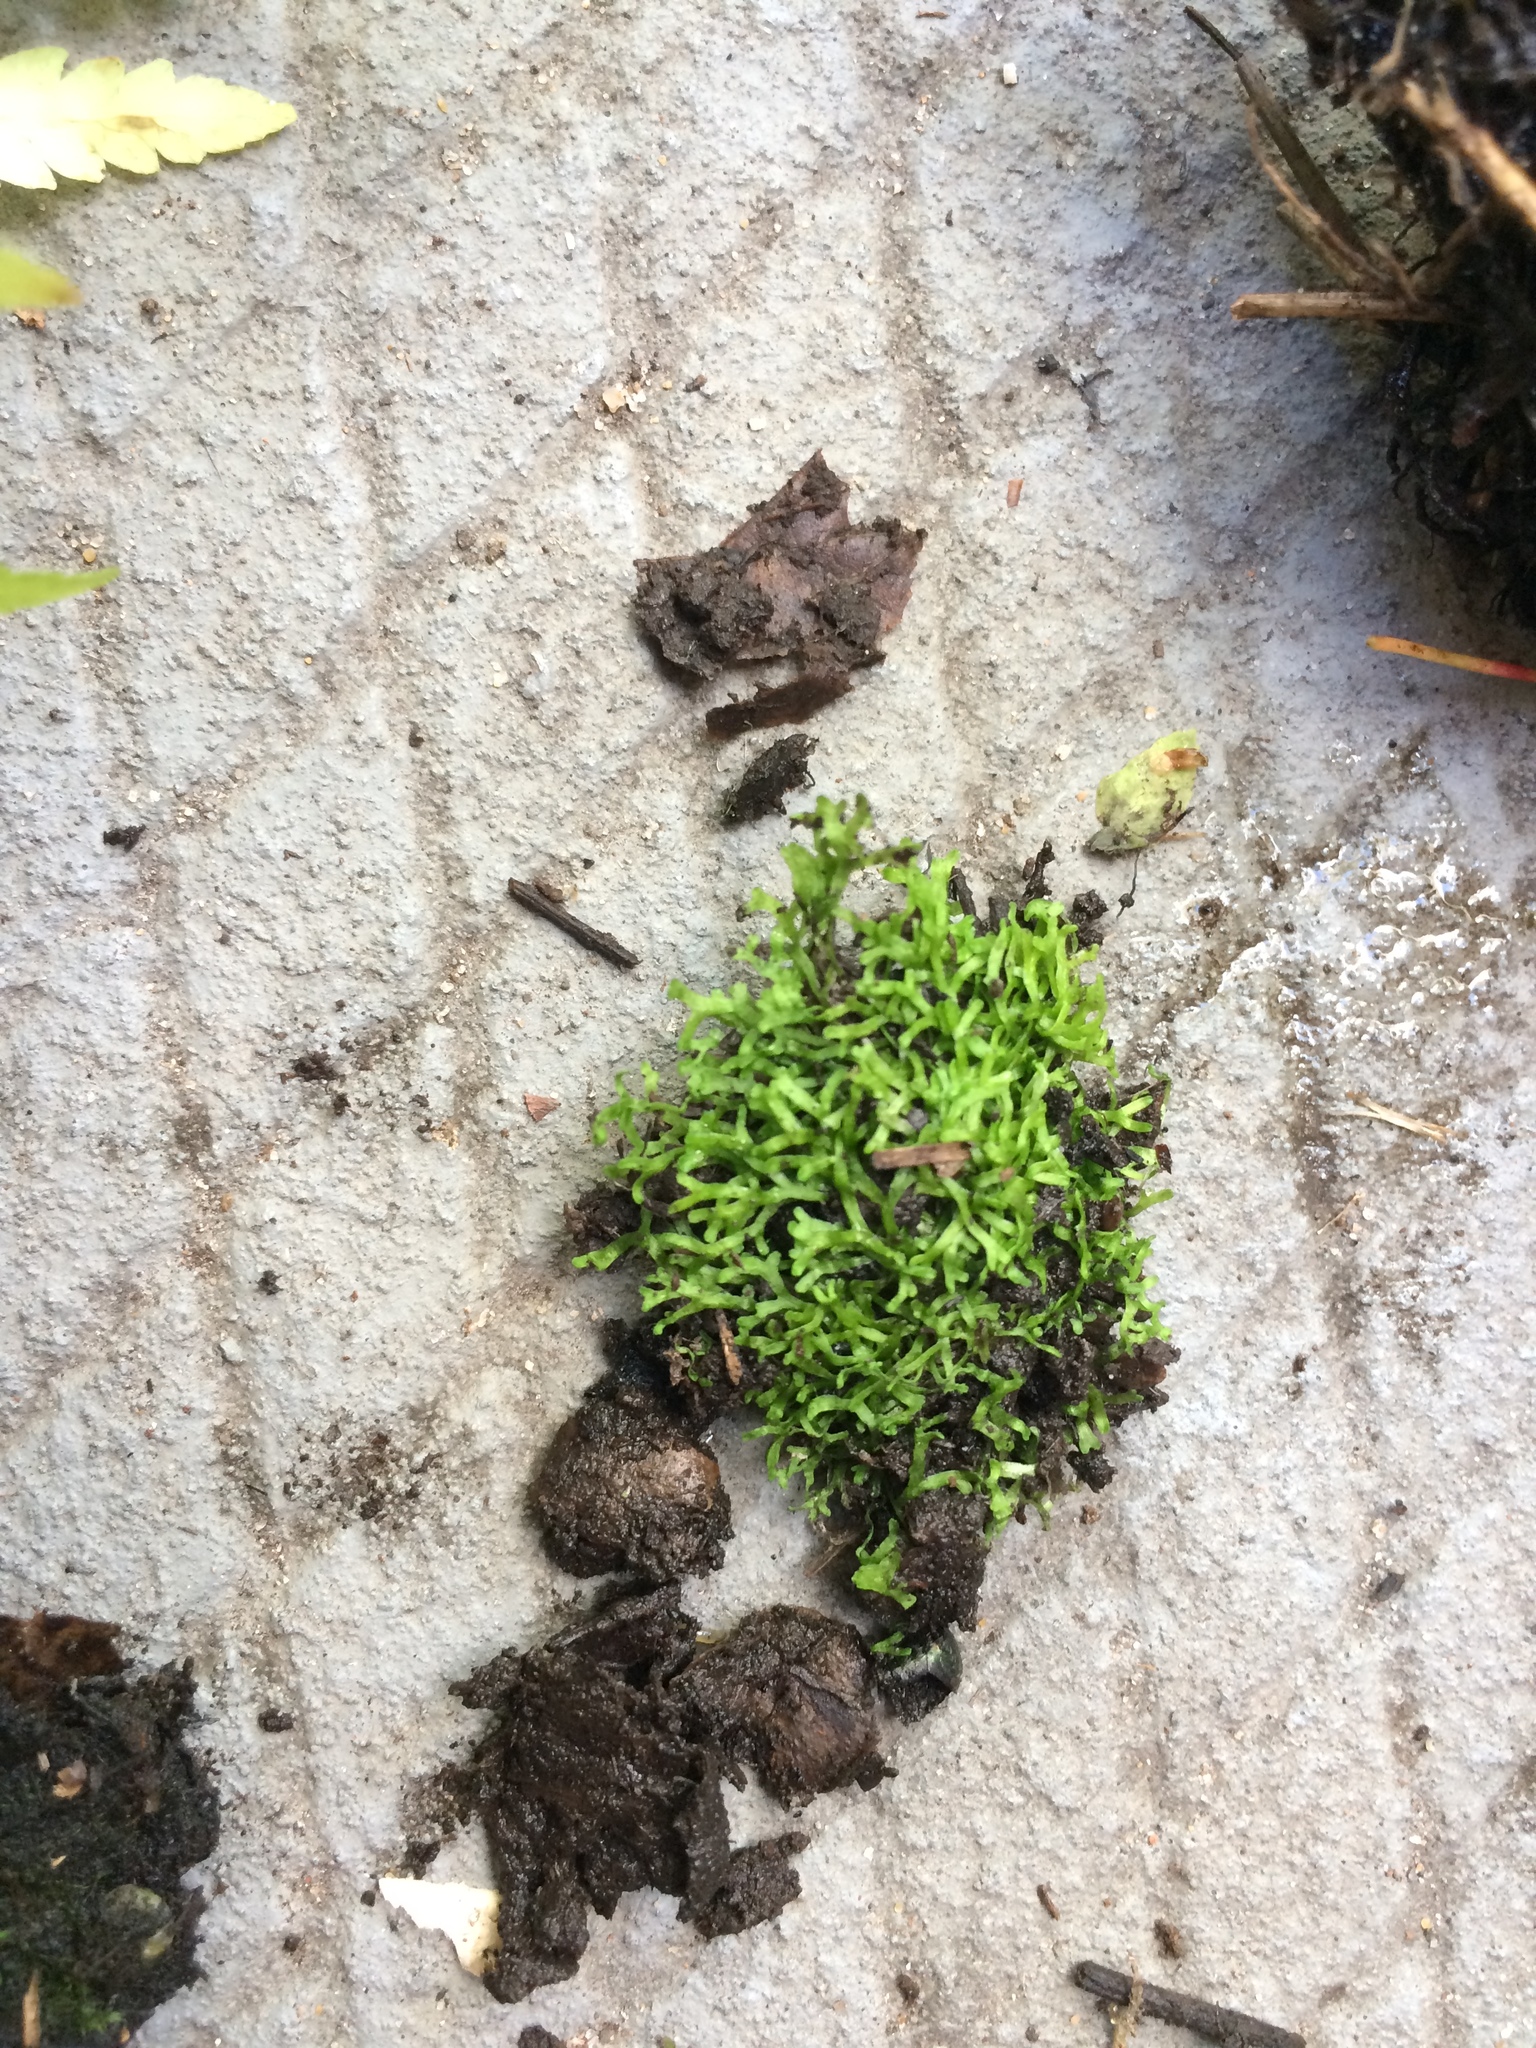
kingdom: Plantae
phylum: Marchantiophyta
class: Marchantiopsida
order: Marchantiales
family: Ricciaceae
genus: Riccia
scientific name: Riccia fluitans
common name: Floating crystalwort
